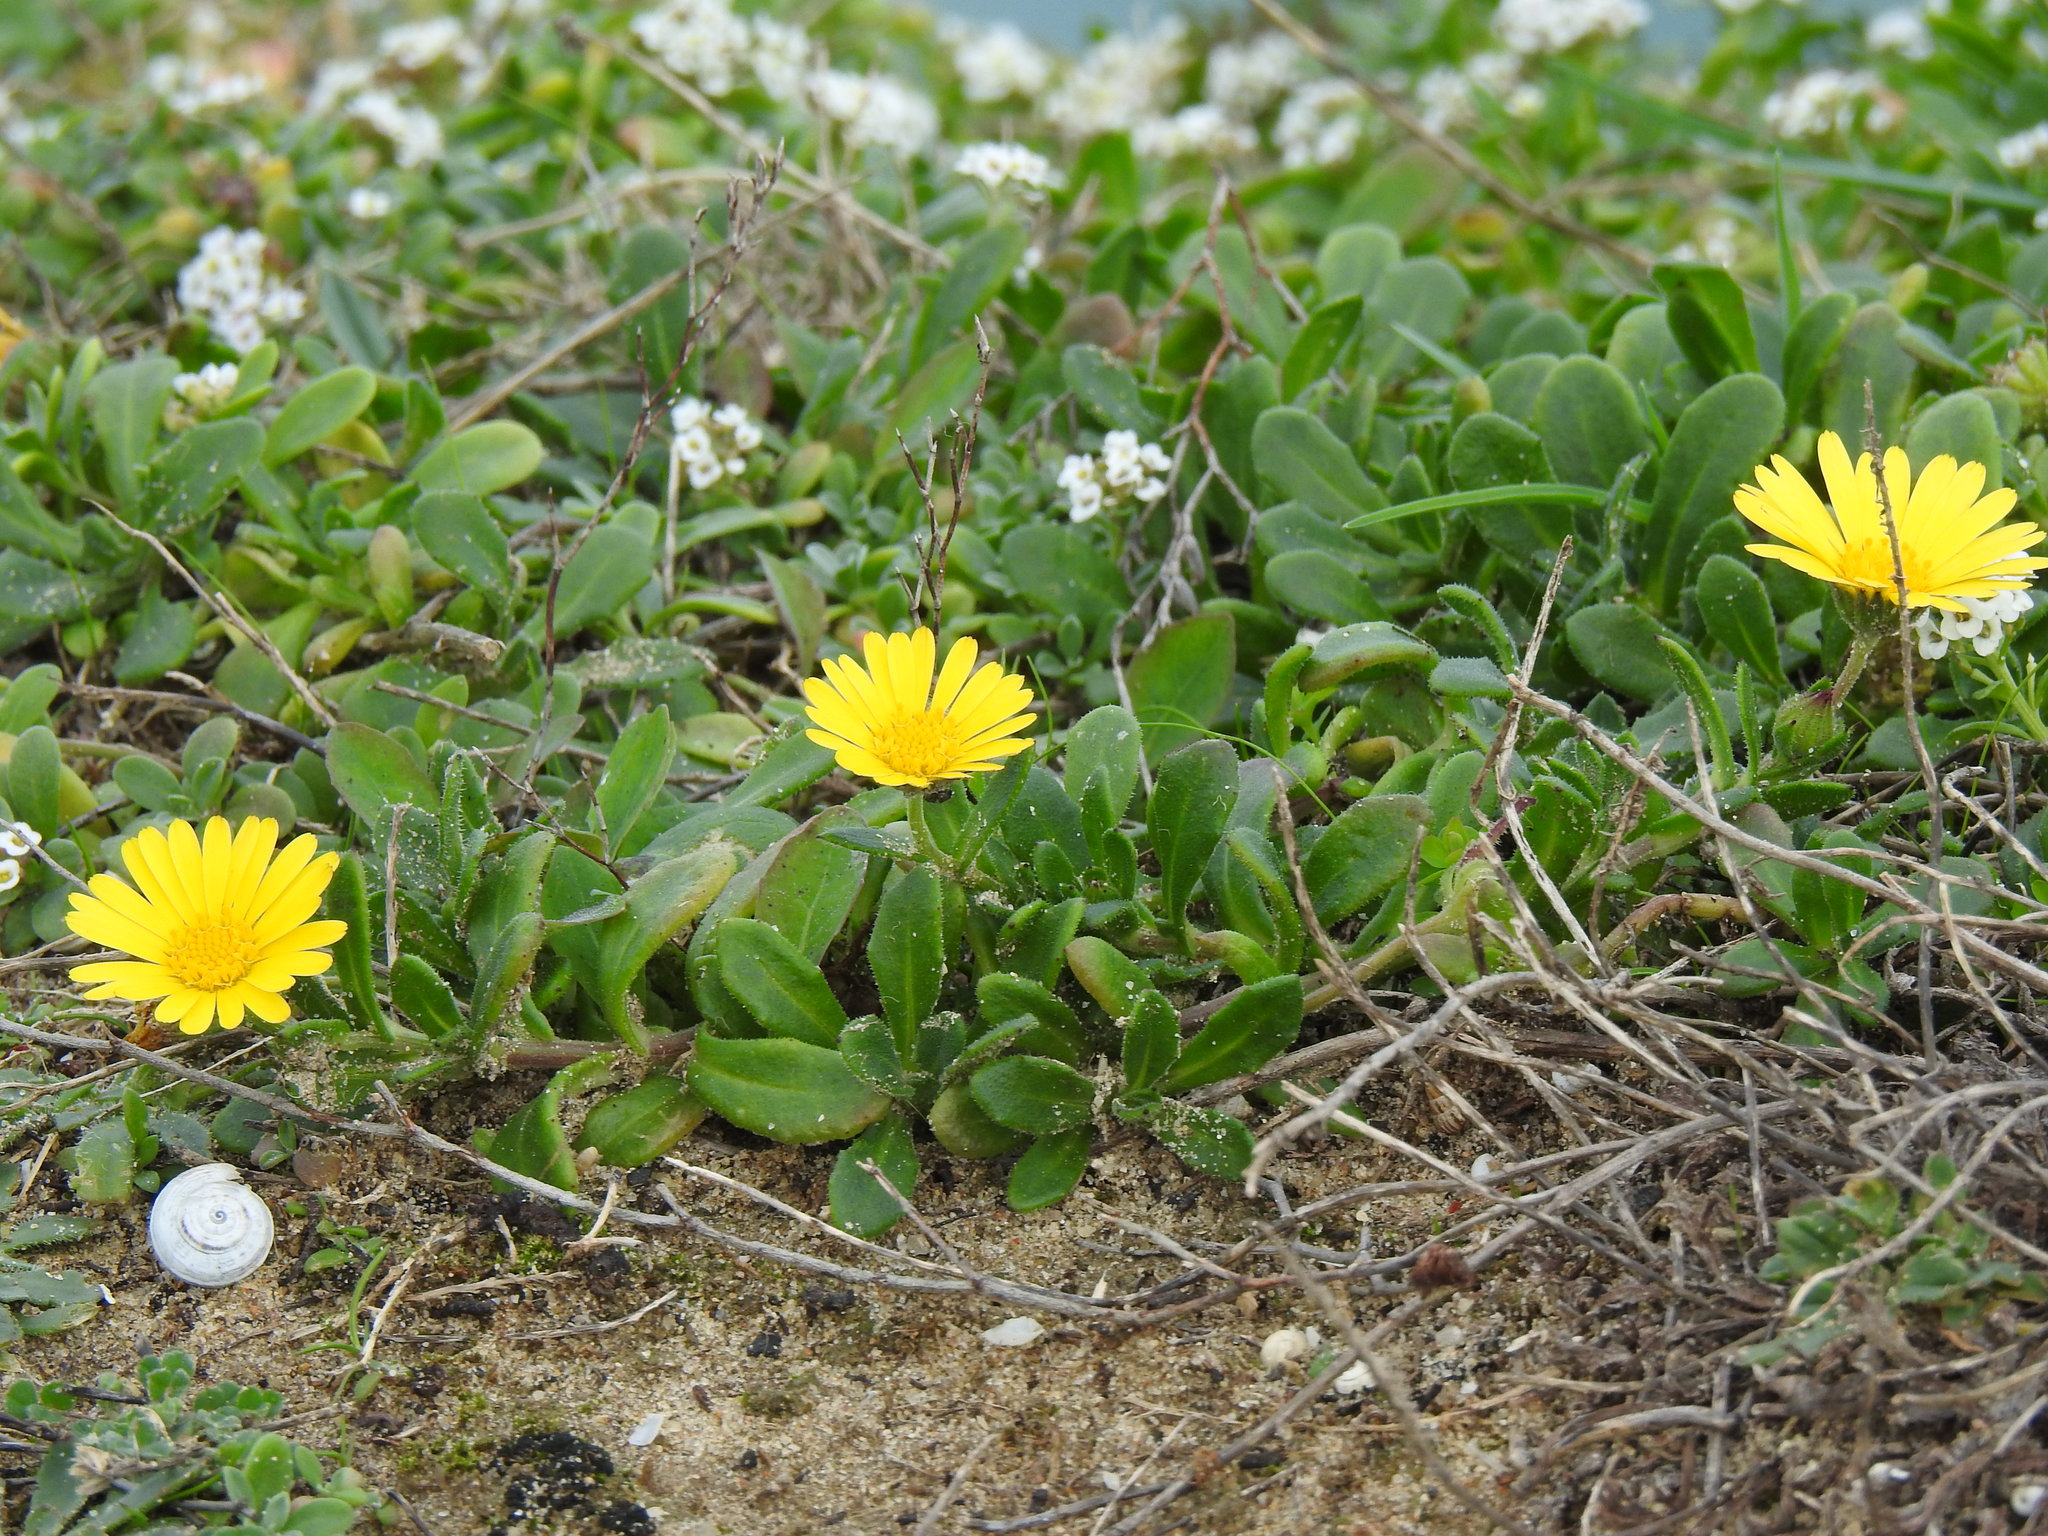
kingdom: Plantae
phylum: Tracheophyta
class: Magnoliopsida
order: Asterales
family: Asteraceae
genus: Calendula
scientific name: Calendula suffruticosa
